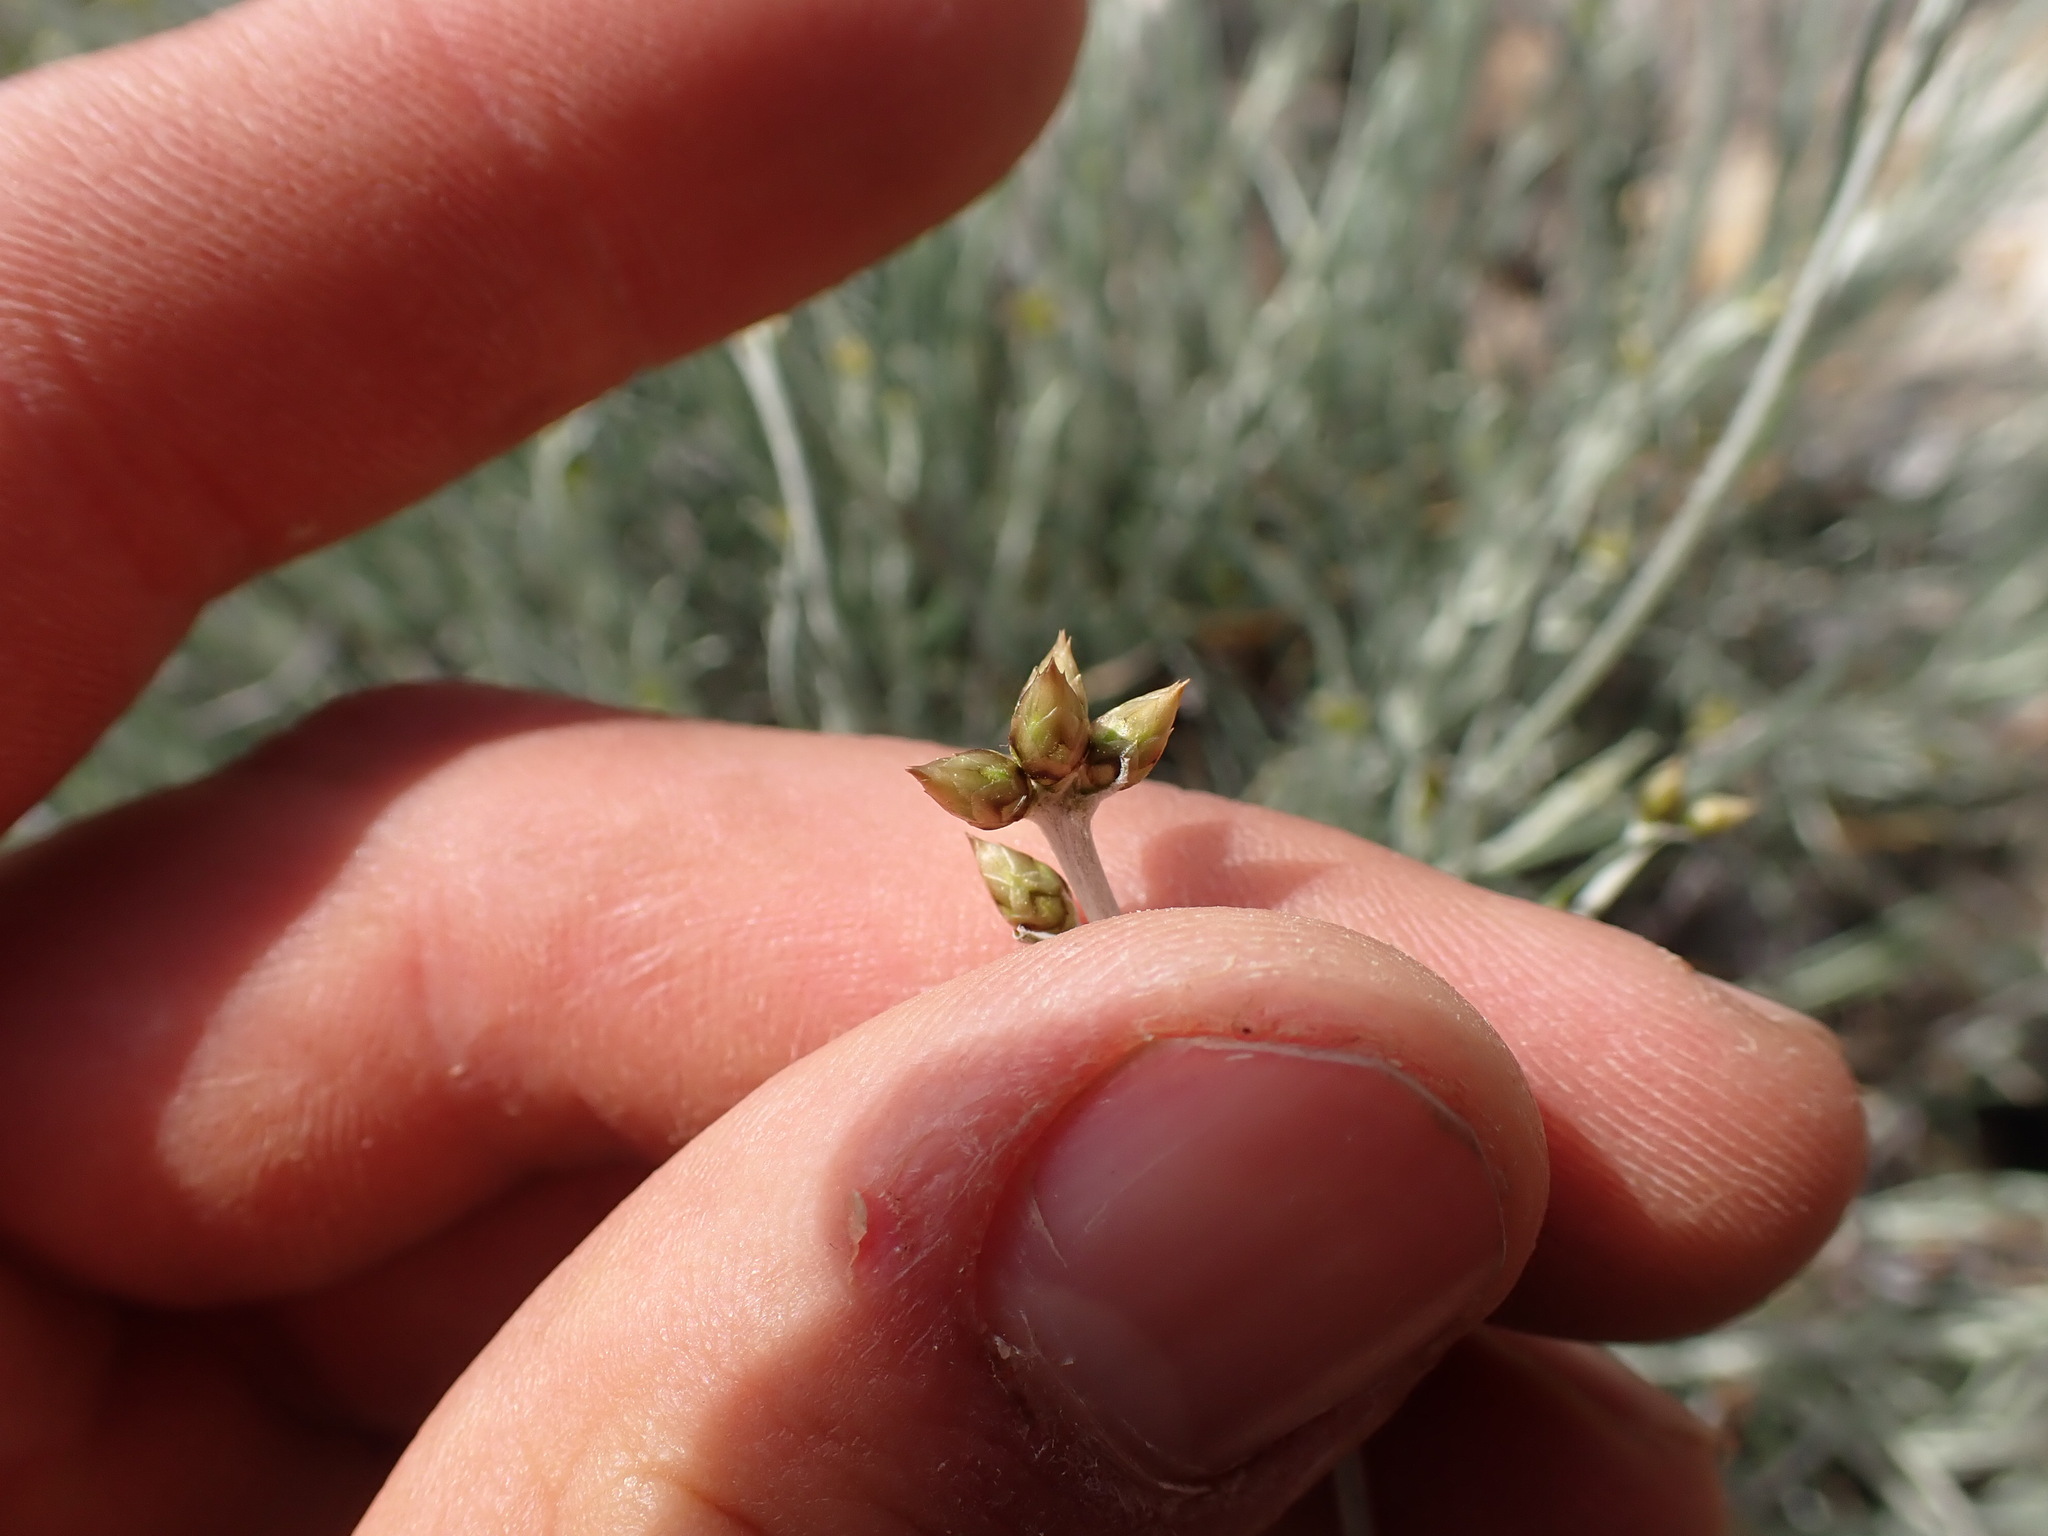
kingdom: Plantae
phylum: Tracheophyta
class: Magnoliopsida
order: Asterales
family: Asteraceae
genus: Phagnalon
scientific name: Phagnalon sordidum
